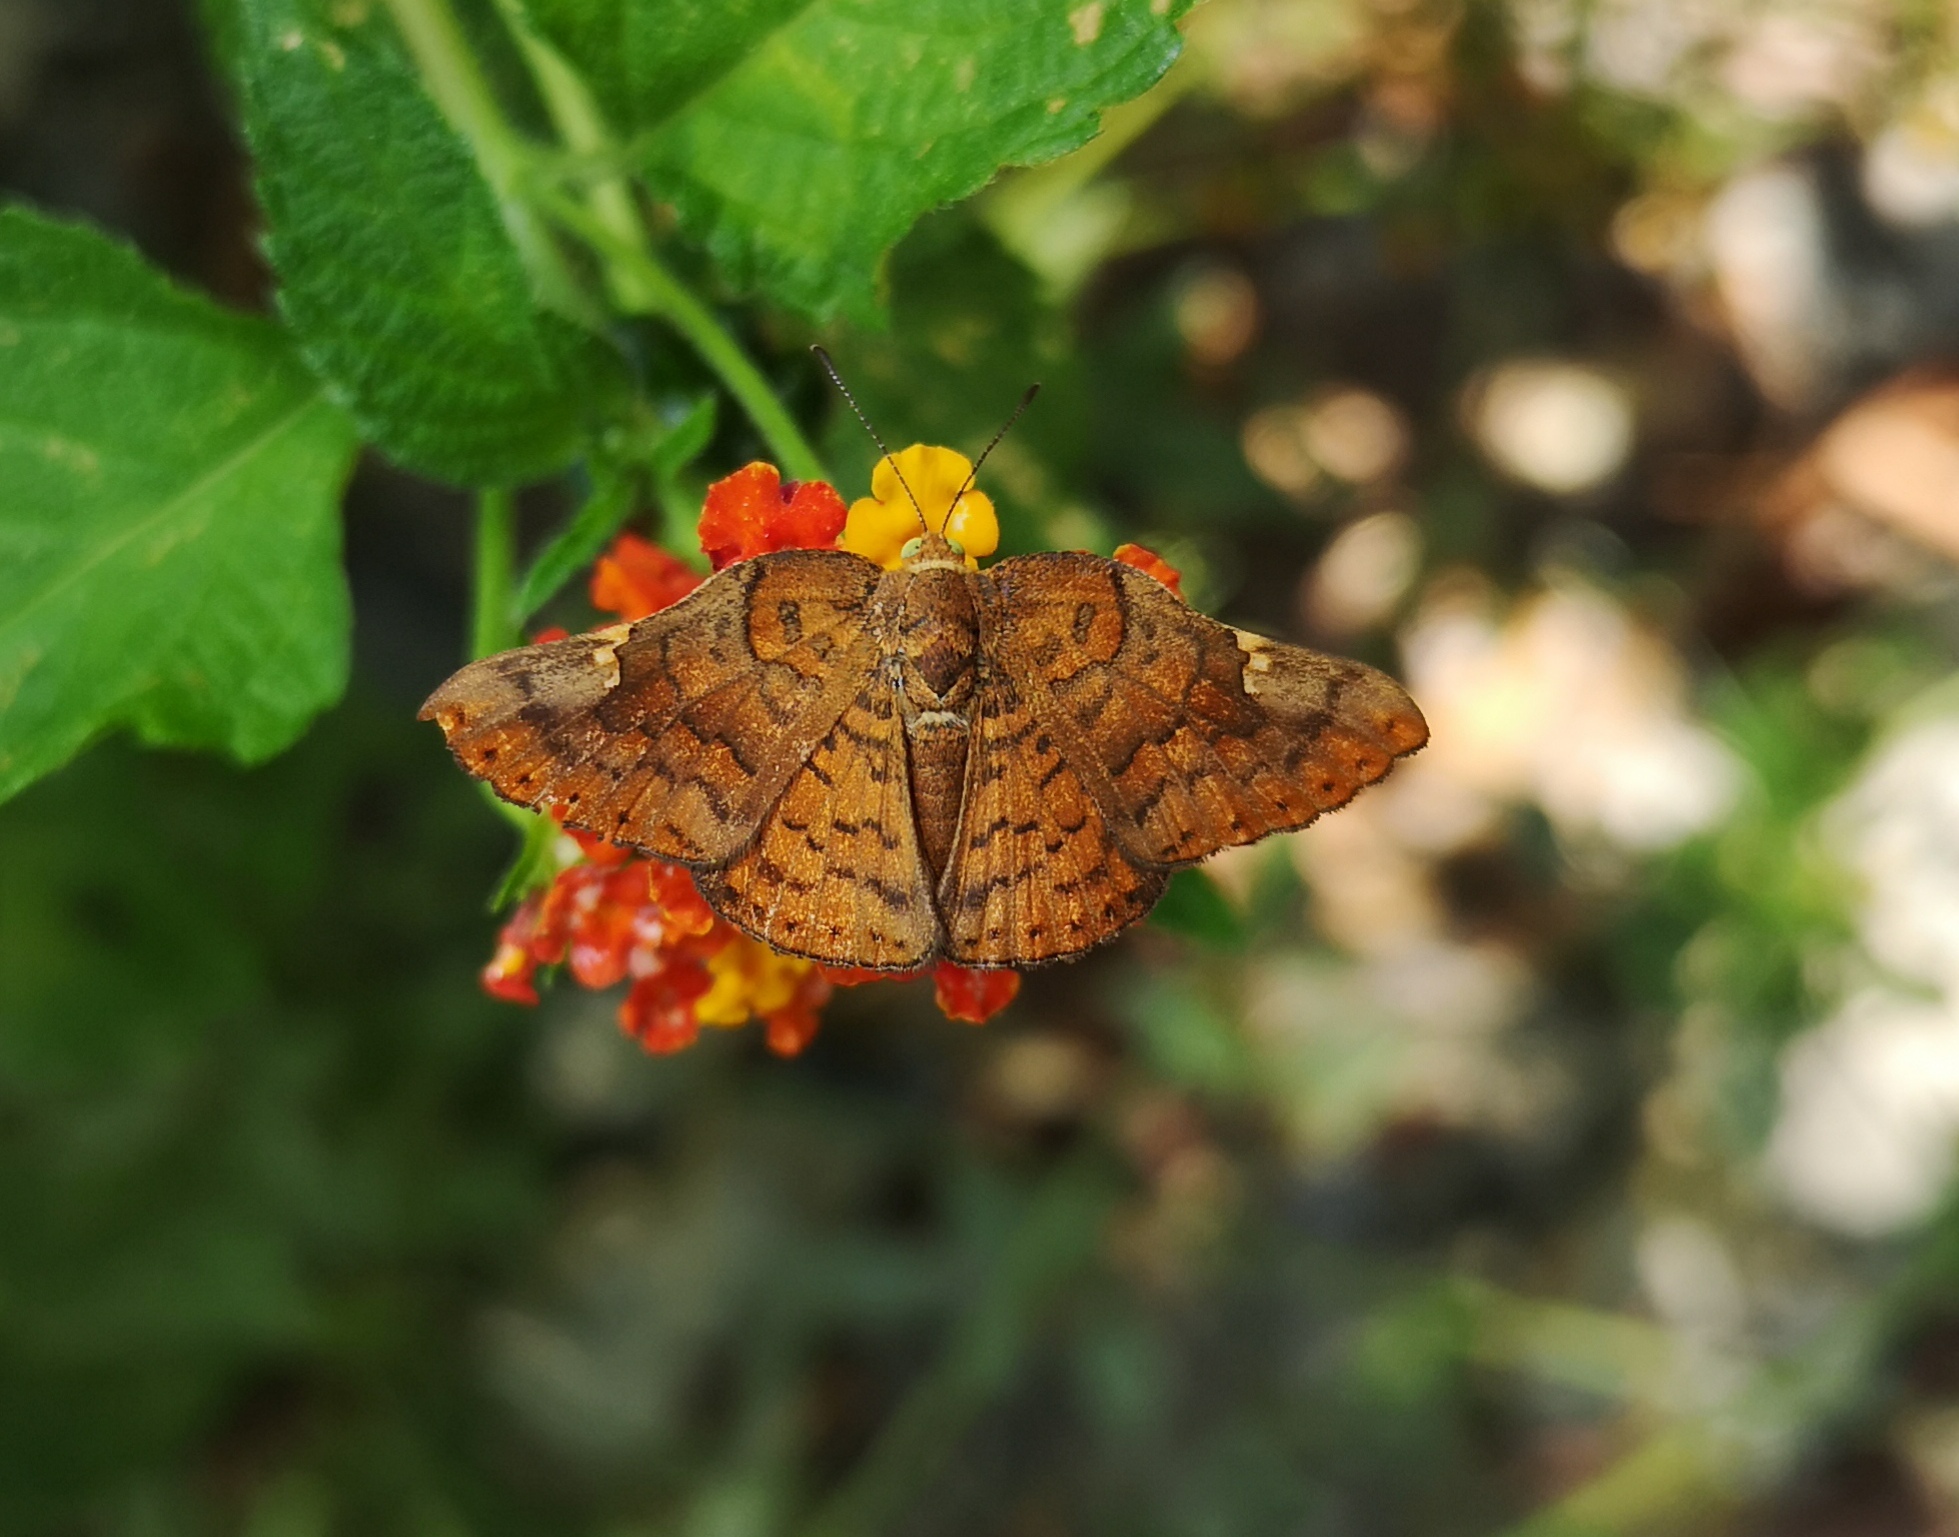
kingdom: Animalia
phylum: Arthropoda
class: Insecta
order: Lepidoptera
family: Riodinidae
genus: Curvie
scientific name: Curvie emesia
